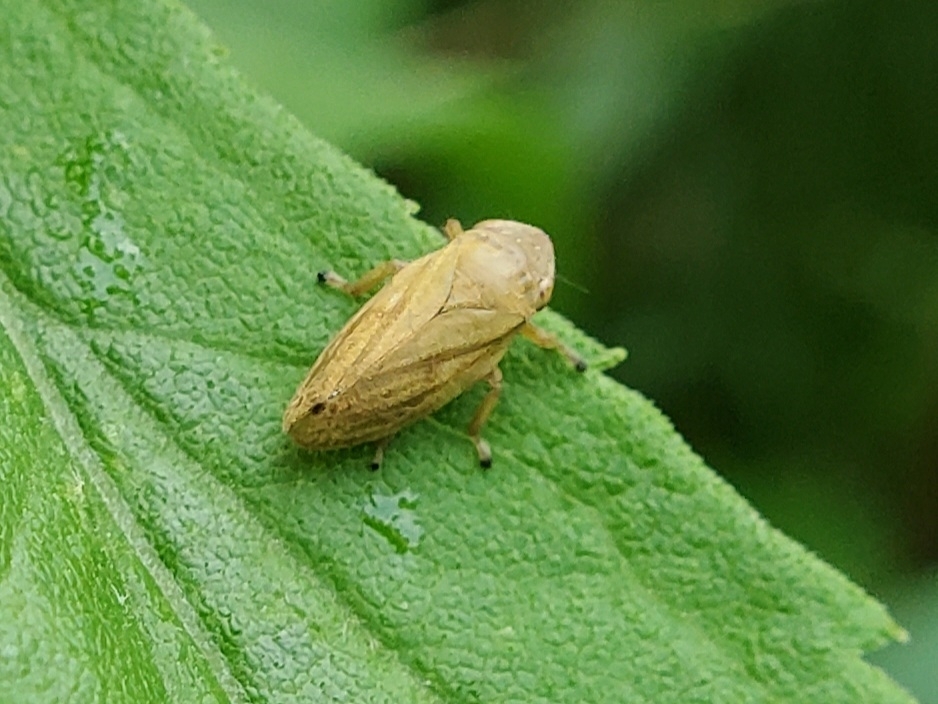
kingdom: Animalia
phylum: Arthropoda
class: Insecta
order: Hemiptera
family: Aphrophoridae
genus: Philaenus
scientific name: Philaenus spumarius
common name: Meadow spittlebug
